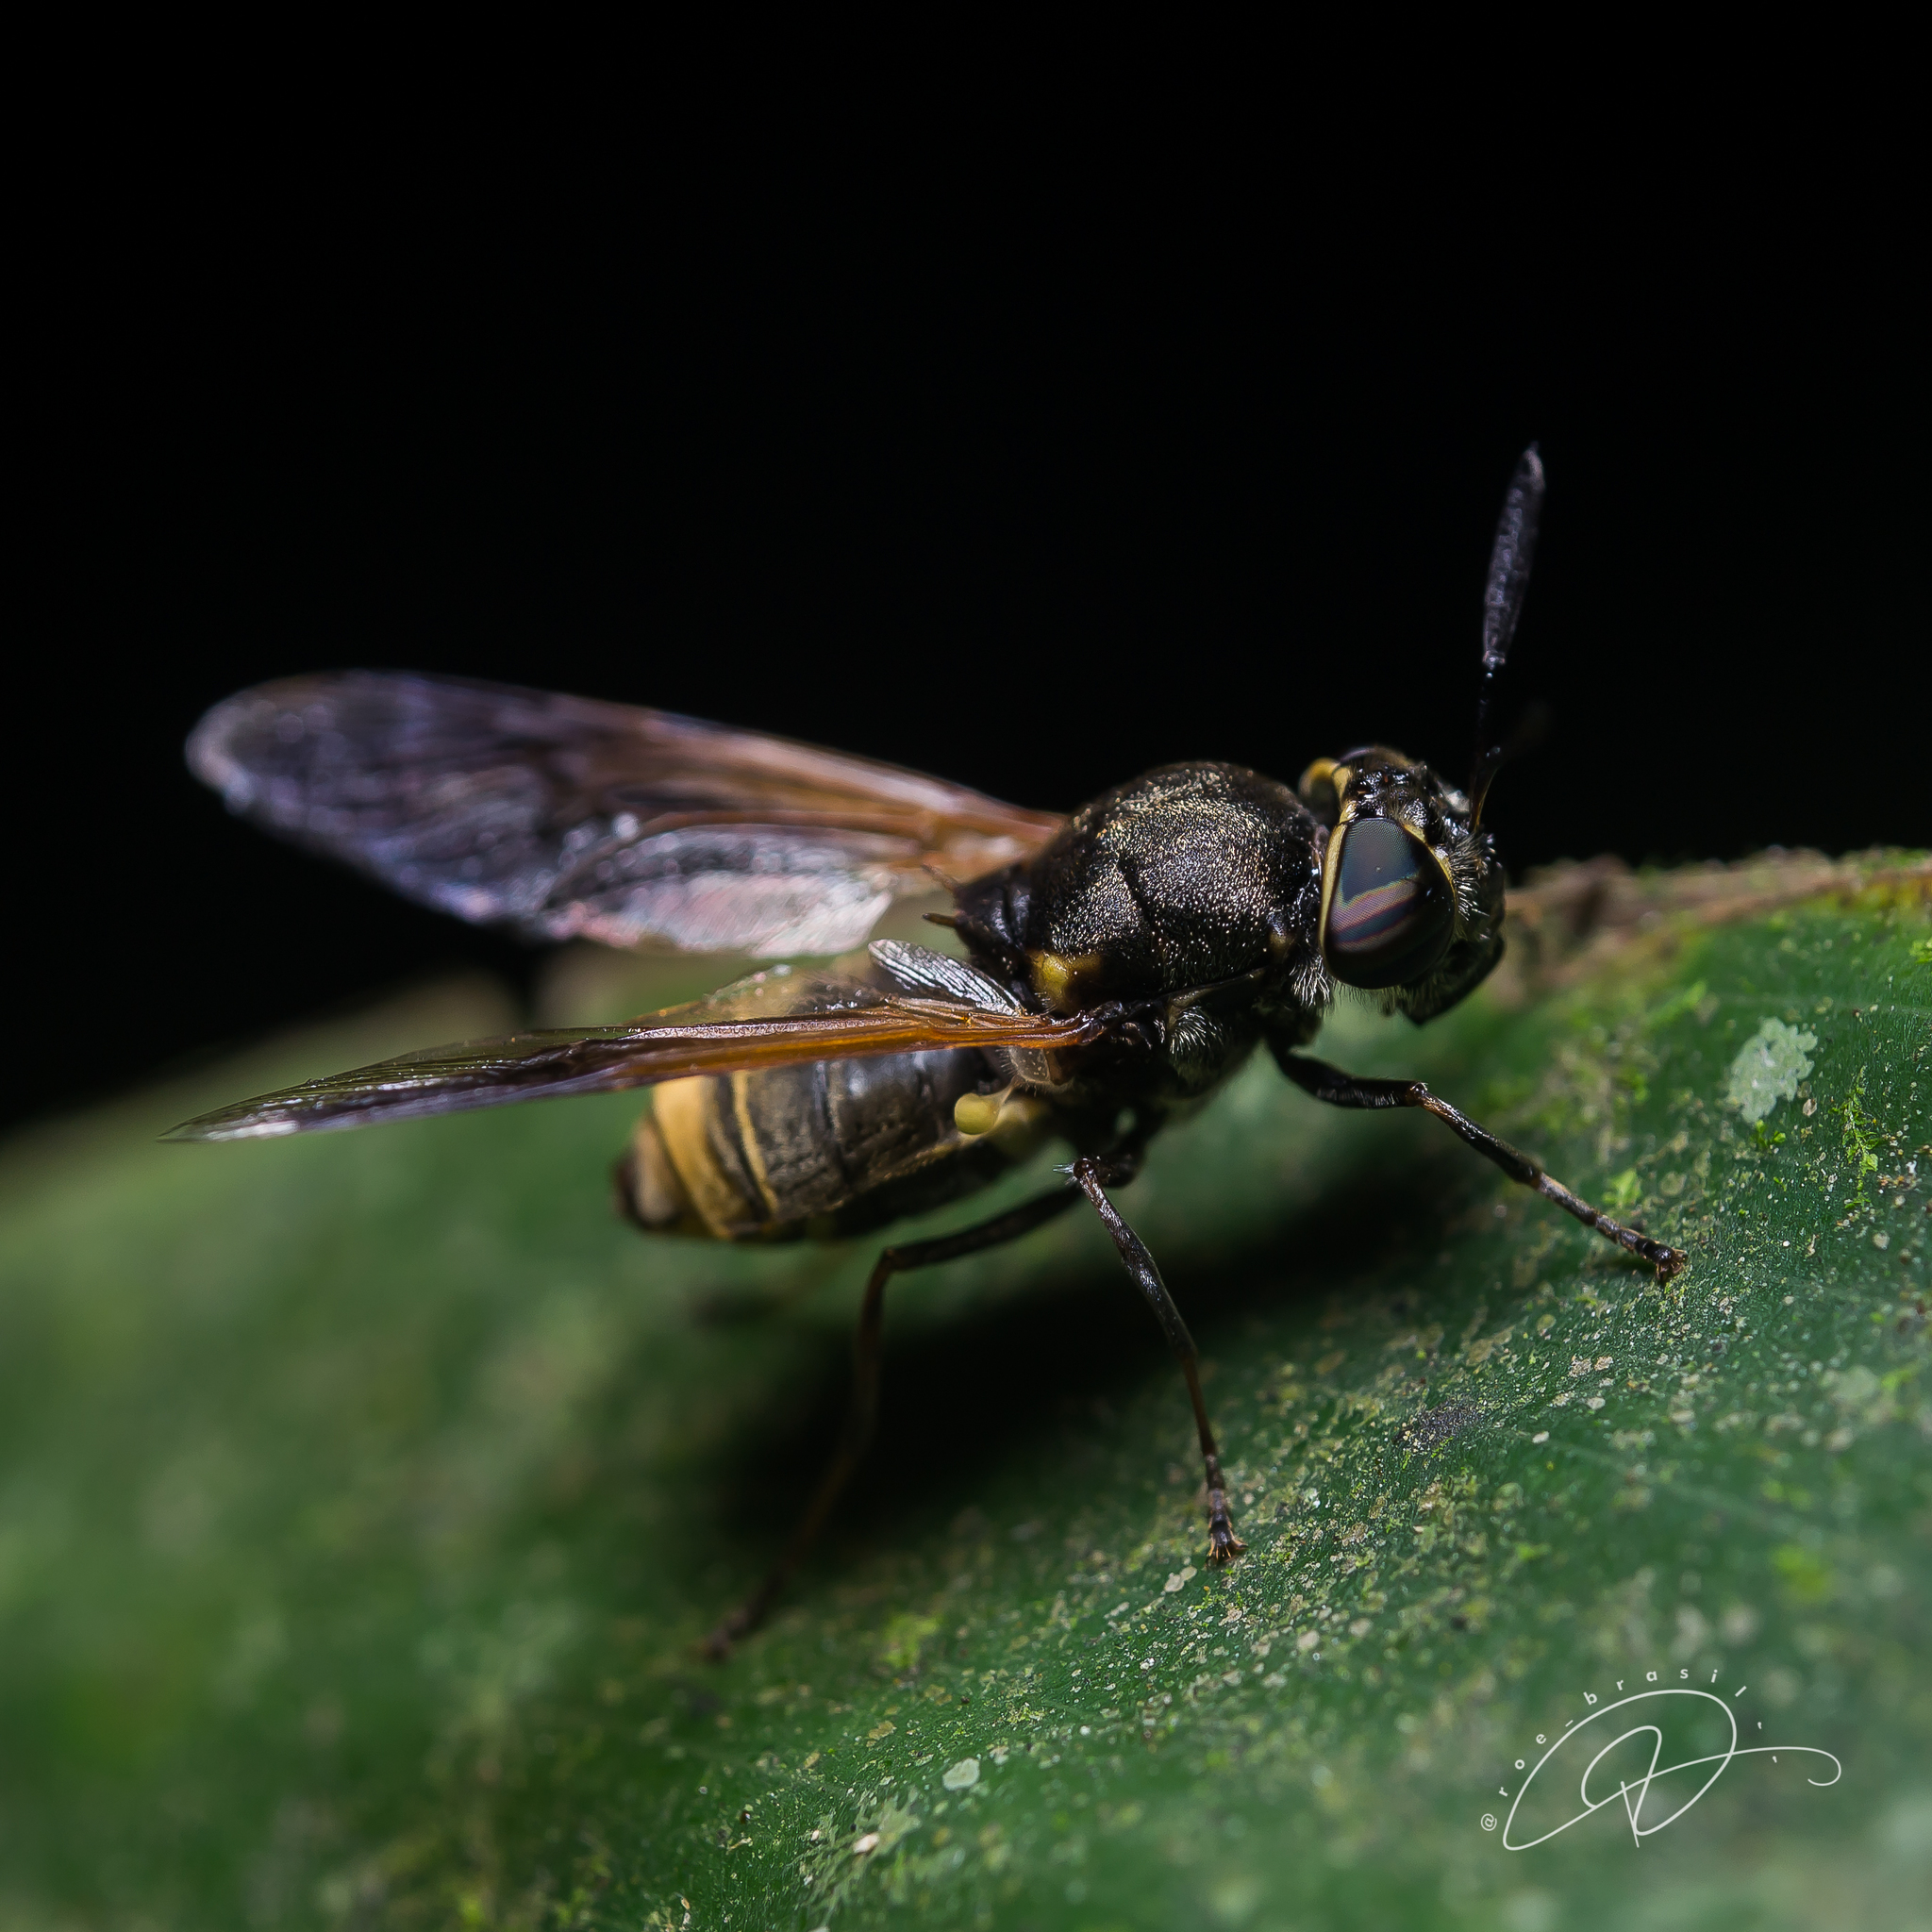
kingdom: Animalia
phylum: Arthropoda
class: Insecta
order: Diptera
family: Stratiomyidae
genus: Hoplitimyia
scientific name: Hoplitimyia mutabilis
